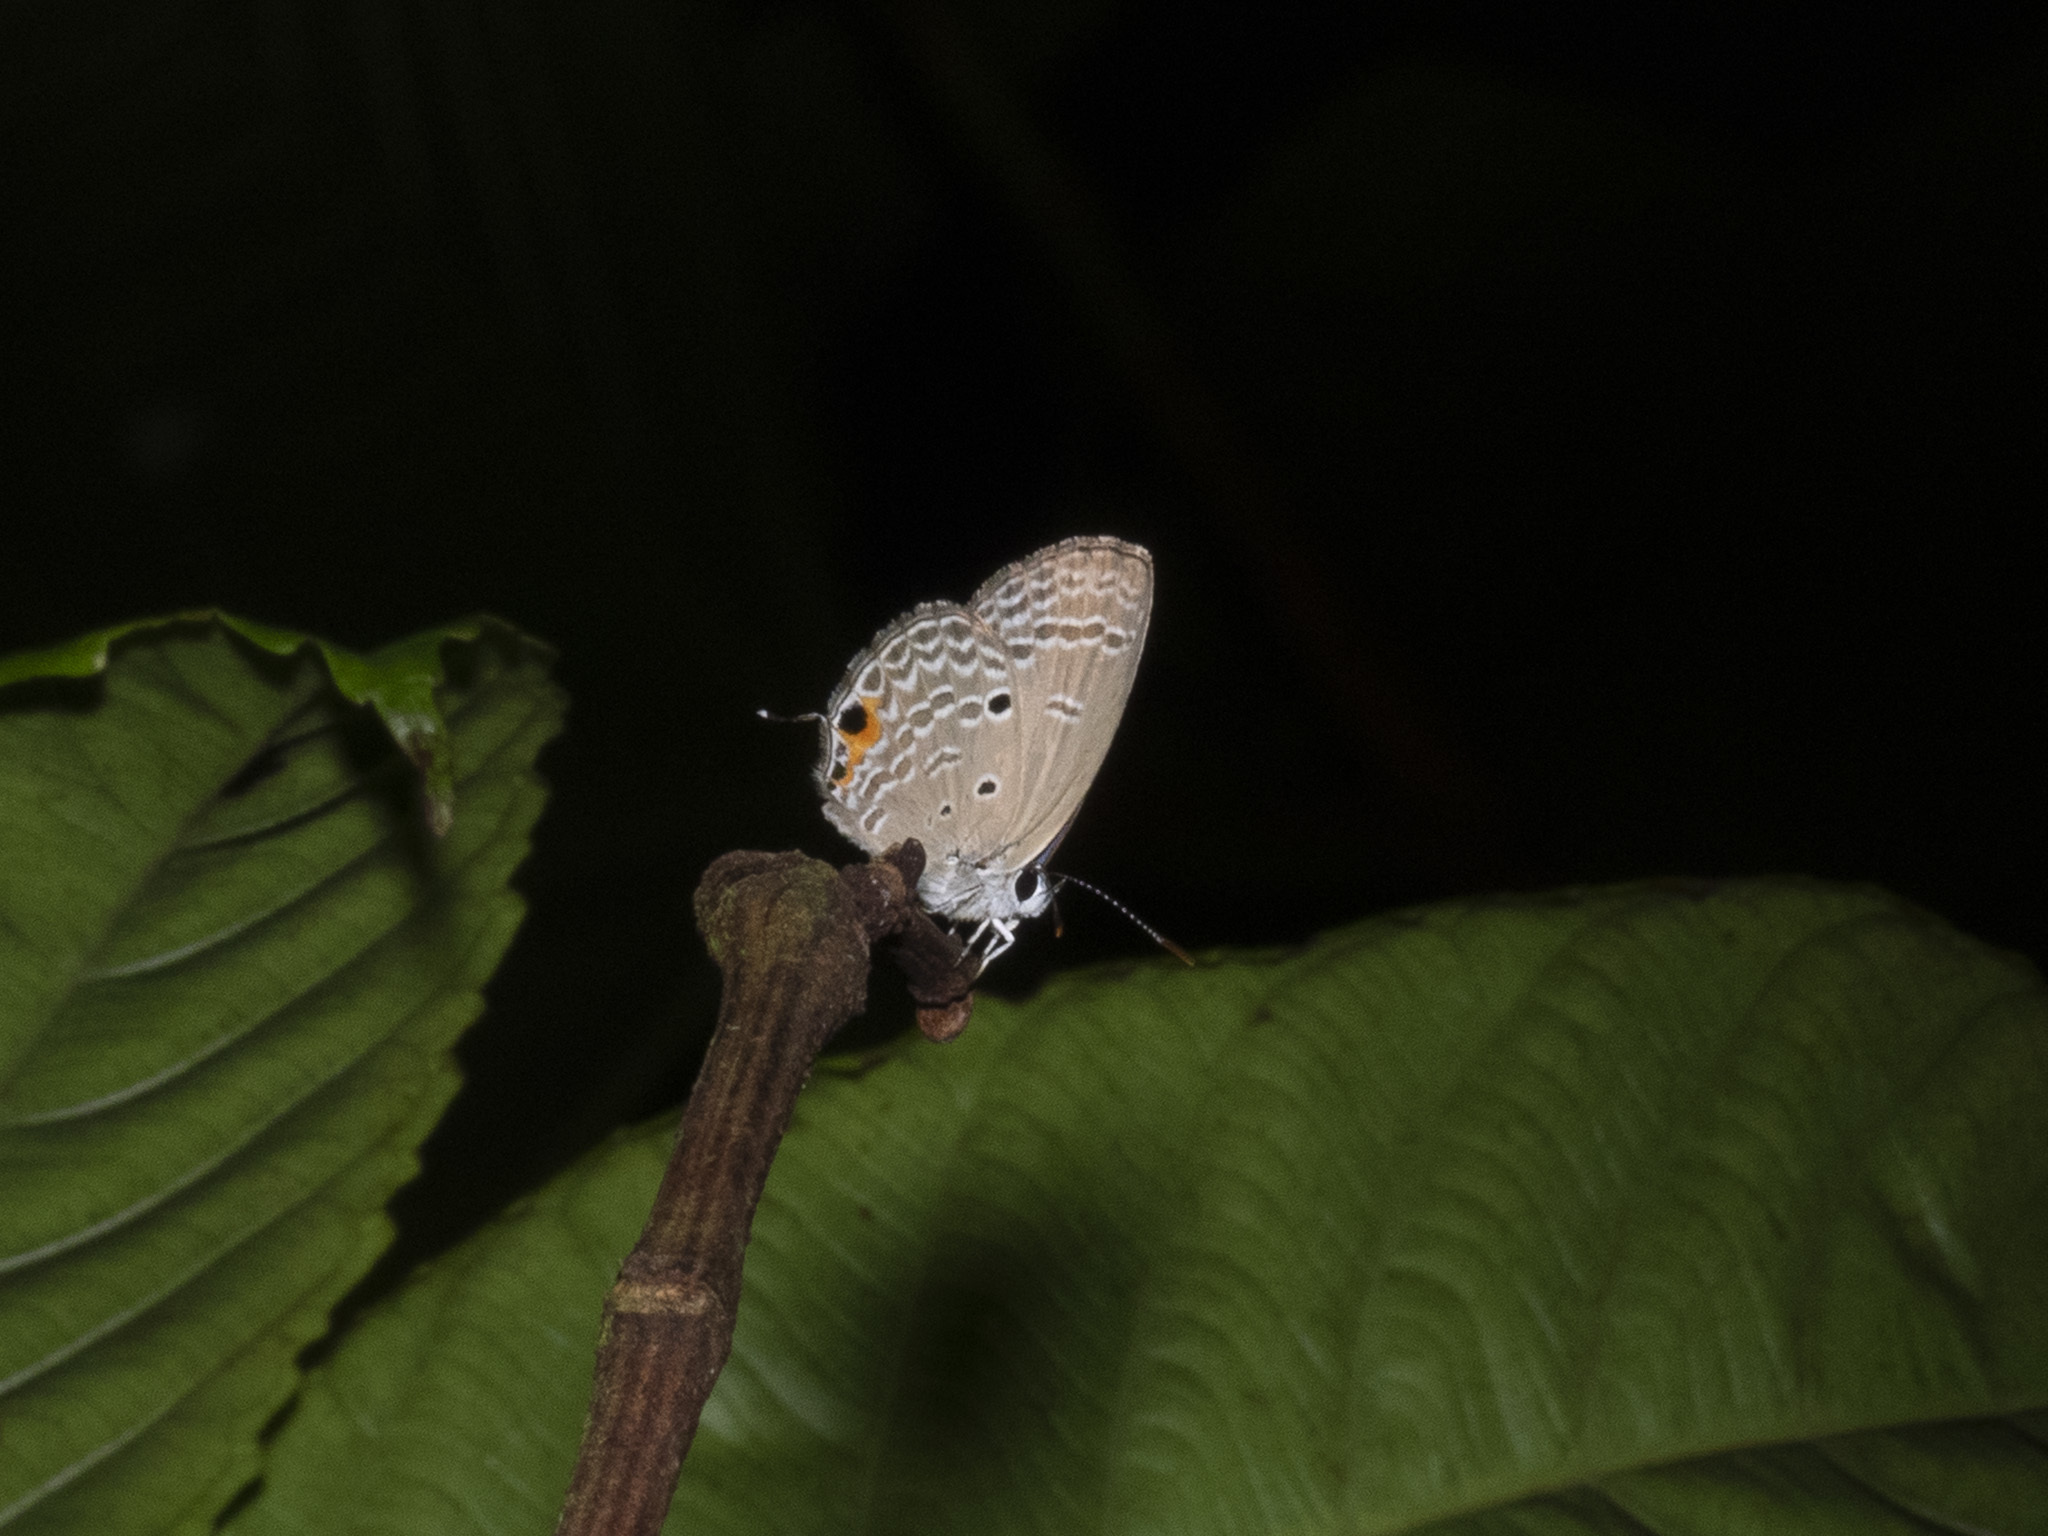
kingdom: Animalia
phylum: Arthropoda
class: Insecta
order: Lepidoptera
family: Lycaenidae
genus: Luthrodes
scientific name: Luthrodes pandava
